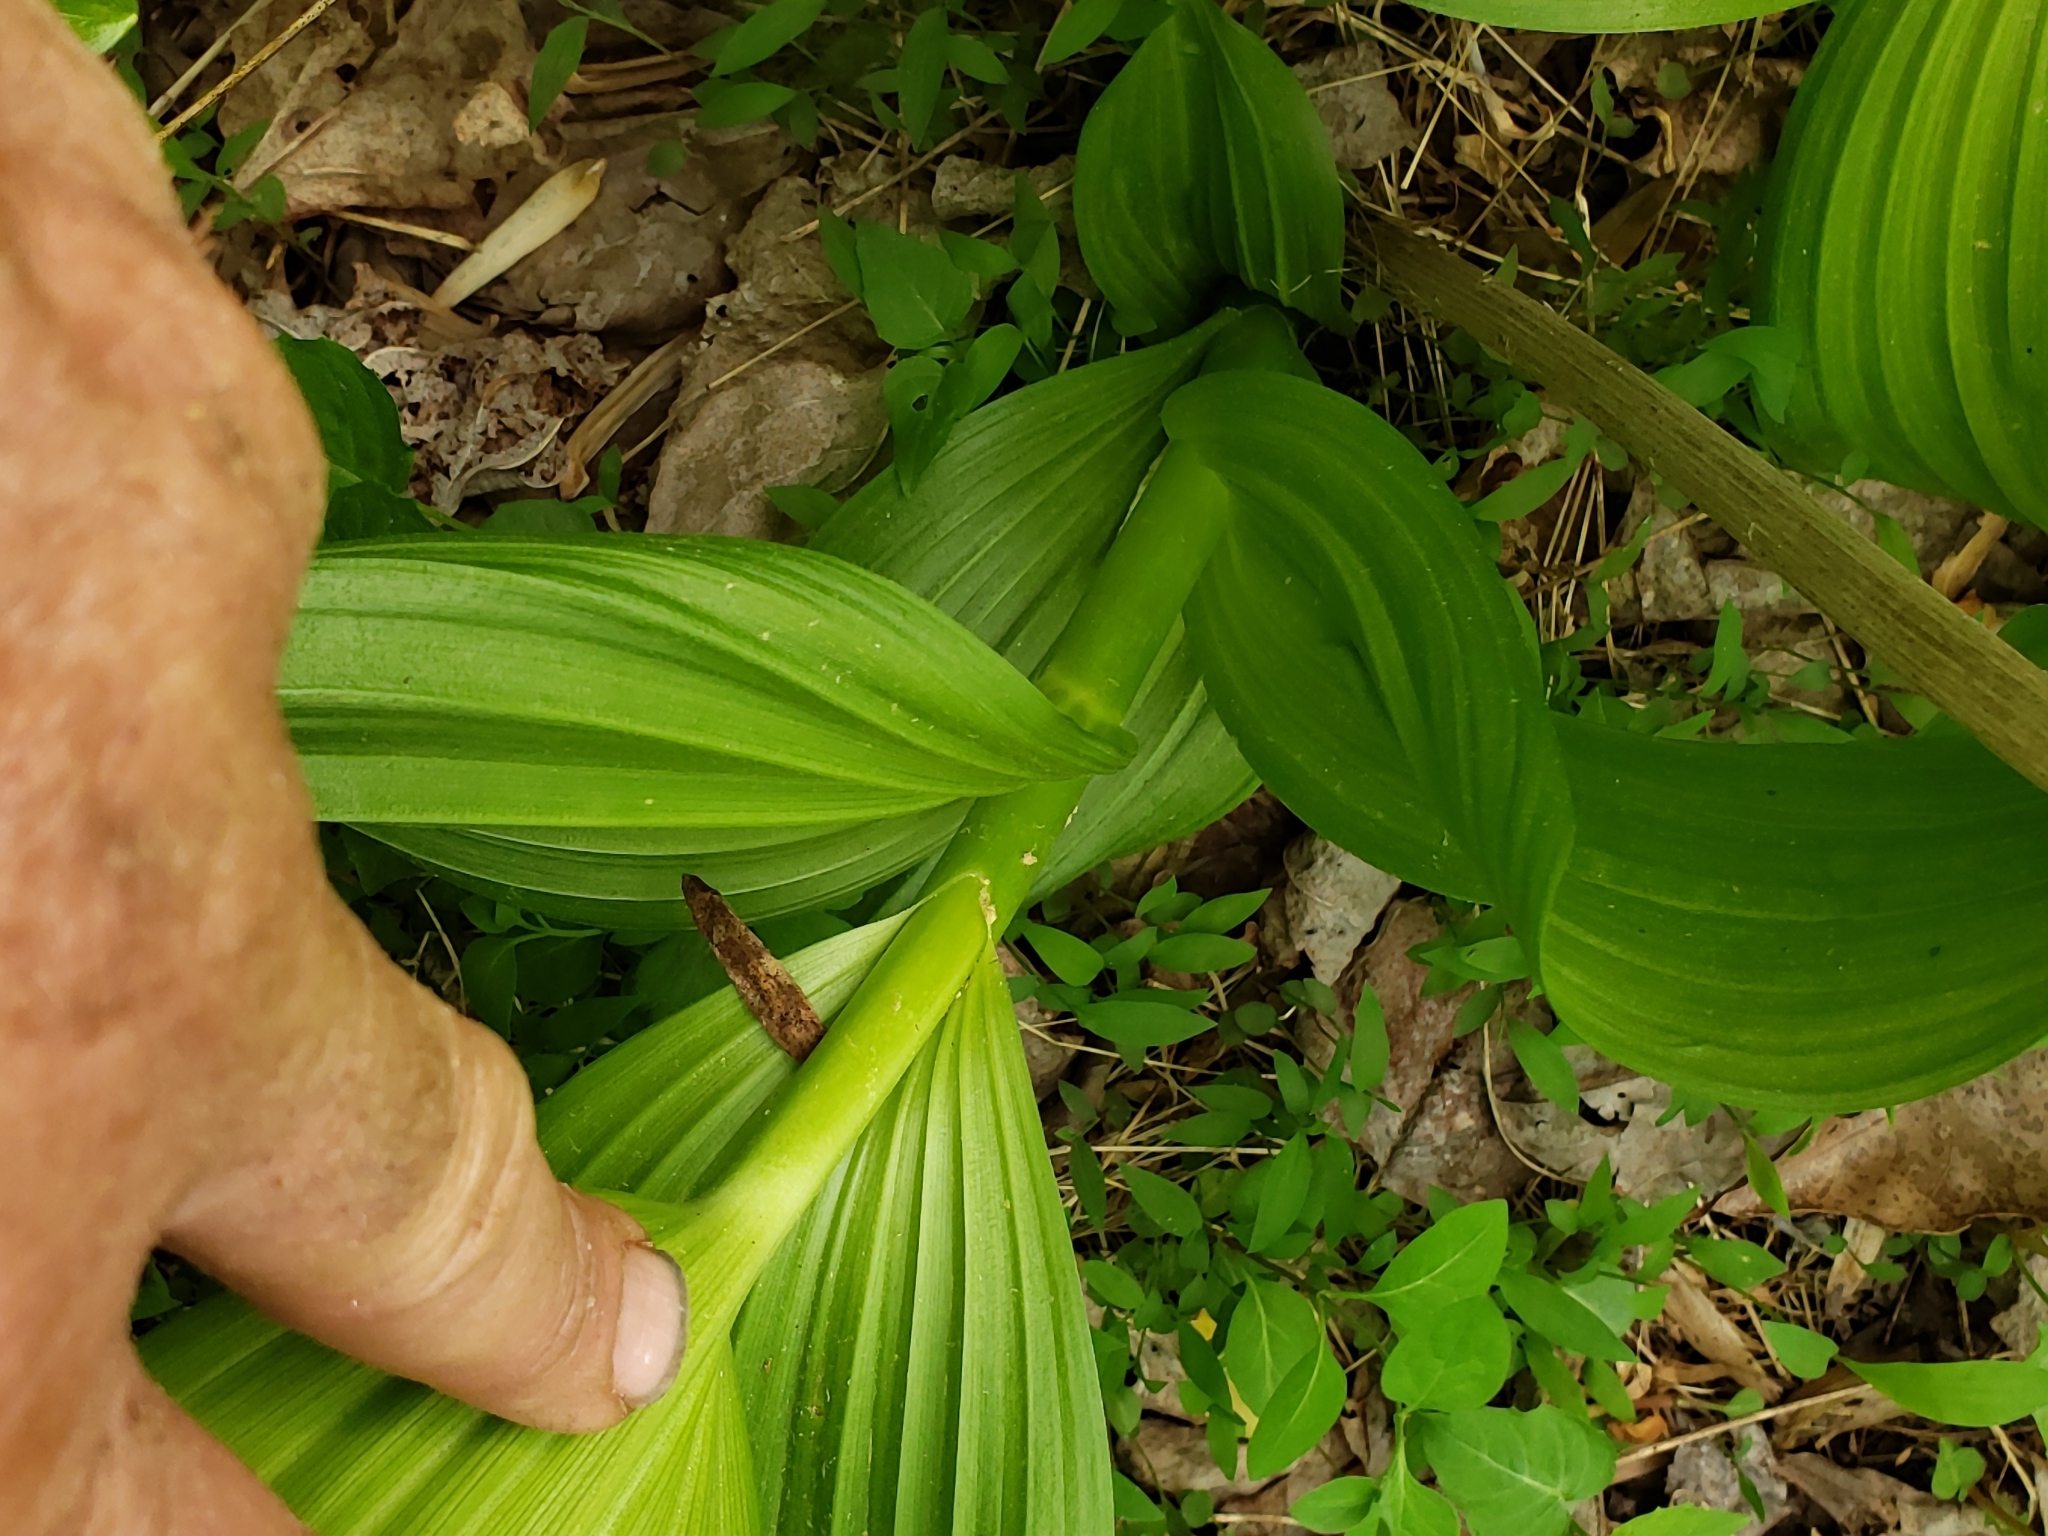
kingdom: Plantae
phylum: Tracheophyta
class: Liliopsida
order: Liliales
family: Melanthiaceae
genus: Veratrum
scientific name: Veratrum viride
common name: American false hellebore
